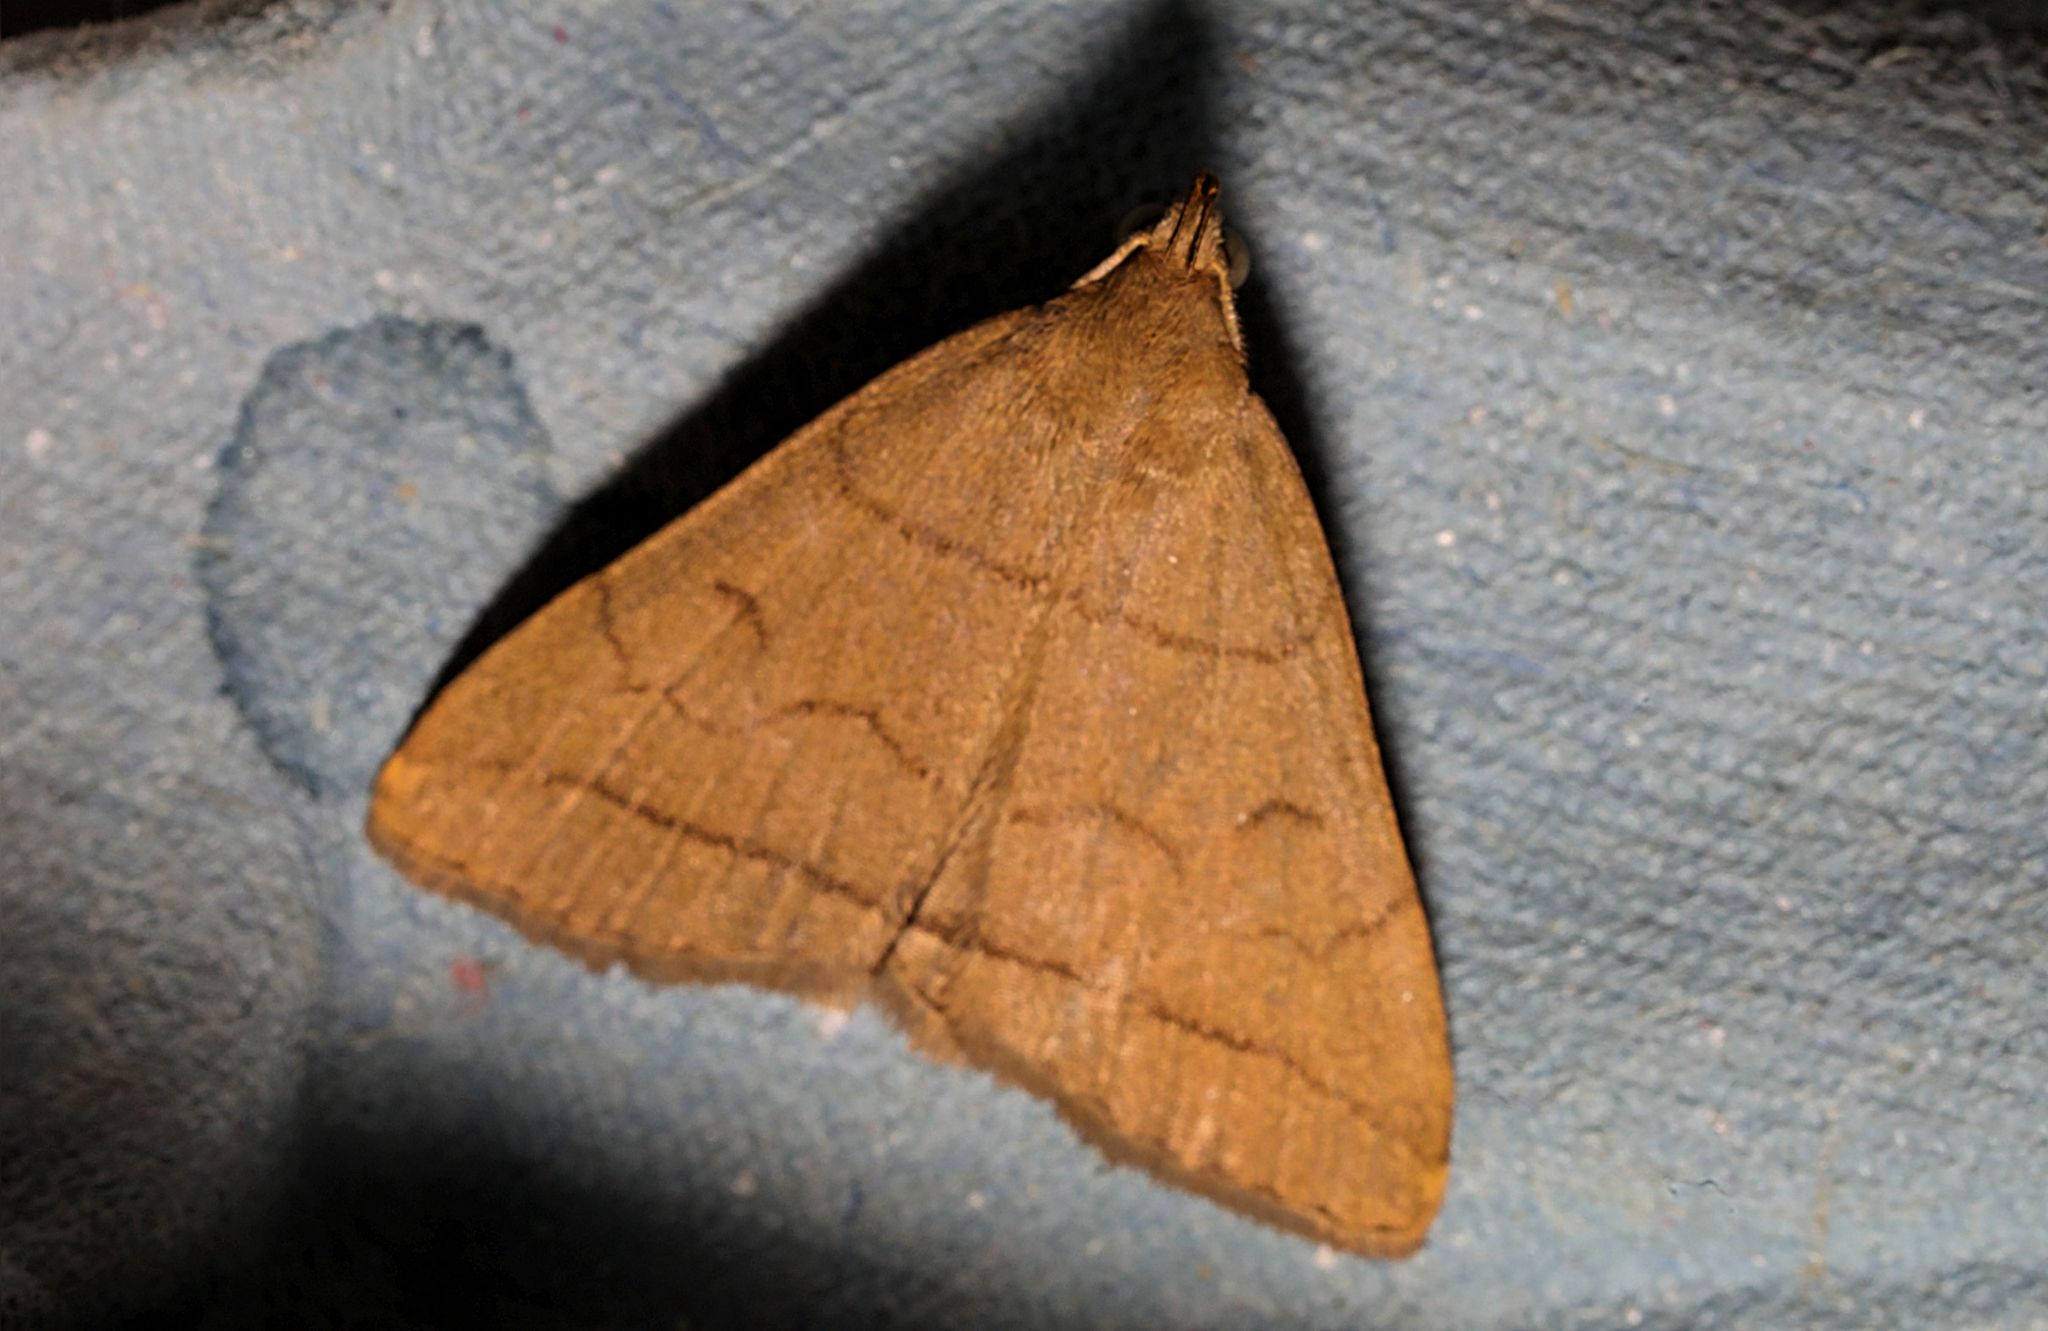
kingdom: Animalia
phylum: Arthropoda
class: Insecta
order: Lepidoptera
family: Erebidae
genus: Herminia
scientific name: Herminia tarsipennalis
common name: Fan-foot
